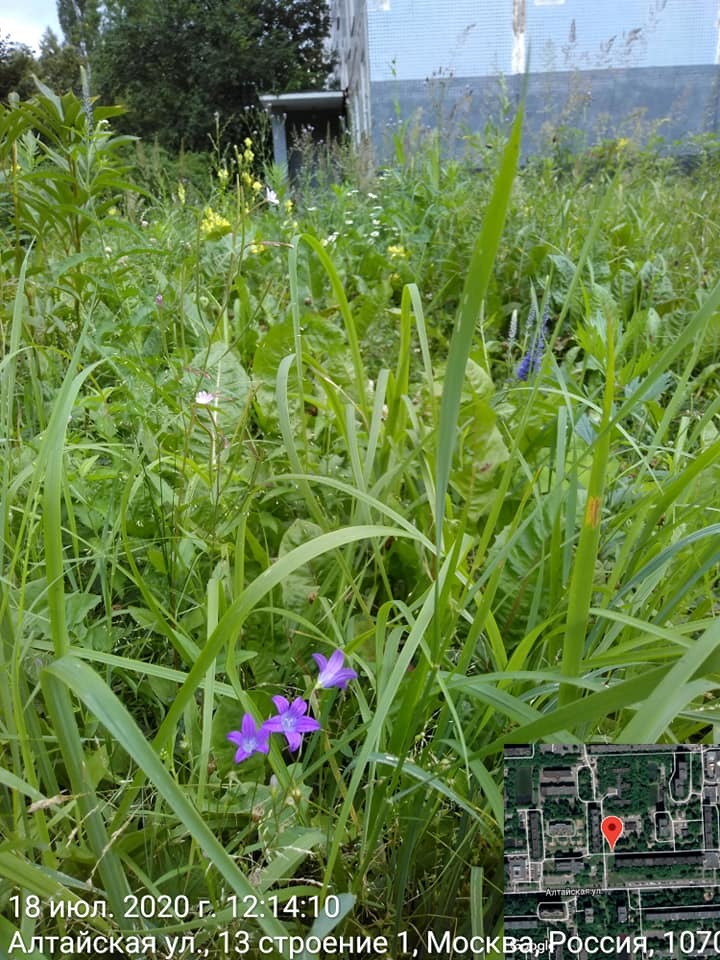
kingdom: Plantae
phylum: Tracheophyta
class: Magnoliopsida
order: Asterales
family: Campanulaceae
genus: Campanula
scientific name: Campanula patula
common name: Spreading bellflower
